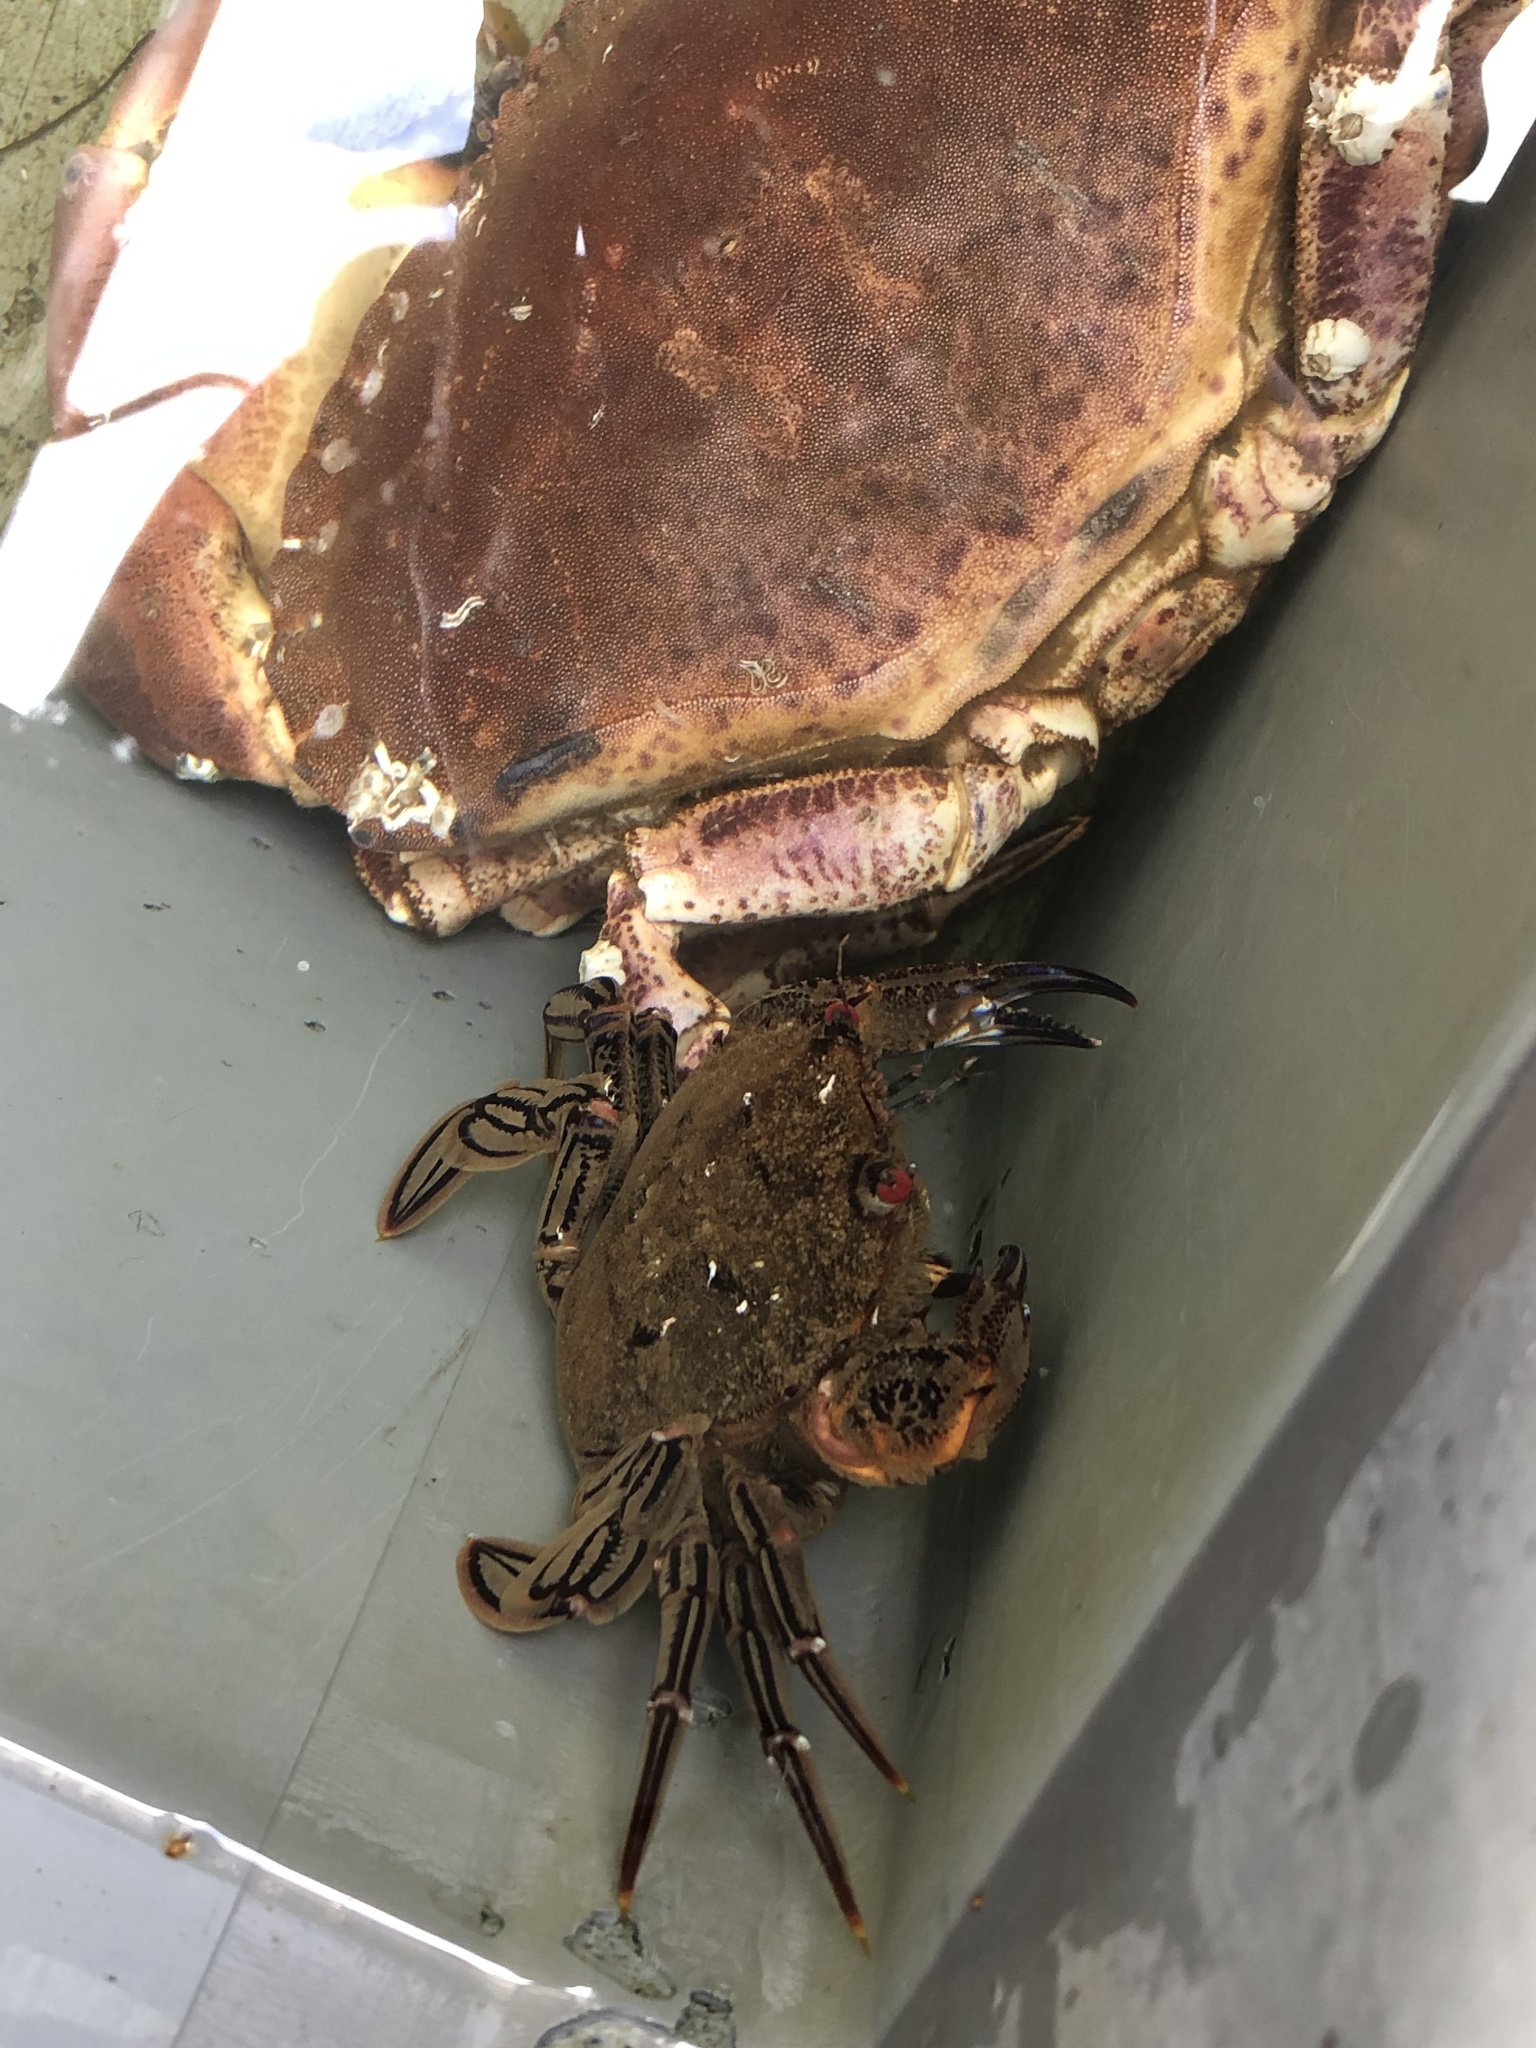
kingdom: Animalia
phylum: Arthropoda
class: Malacostraca
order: Decapoda
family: Polybiidae
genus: Necora
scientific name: Necora puber
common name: Velvet swimming crab
